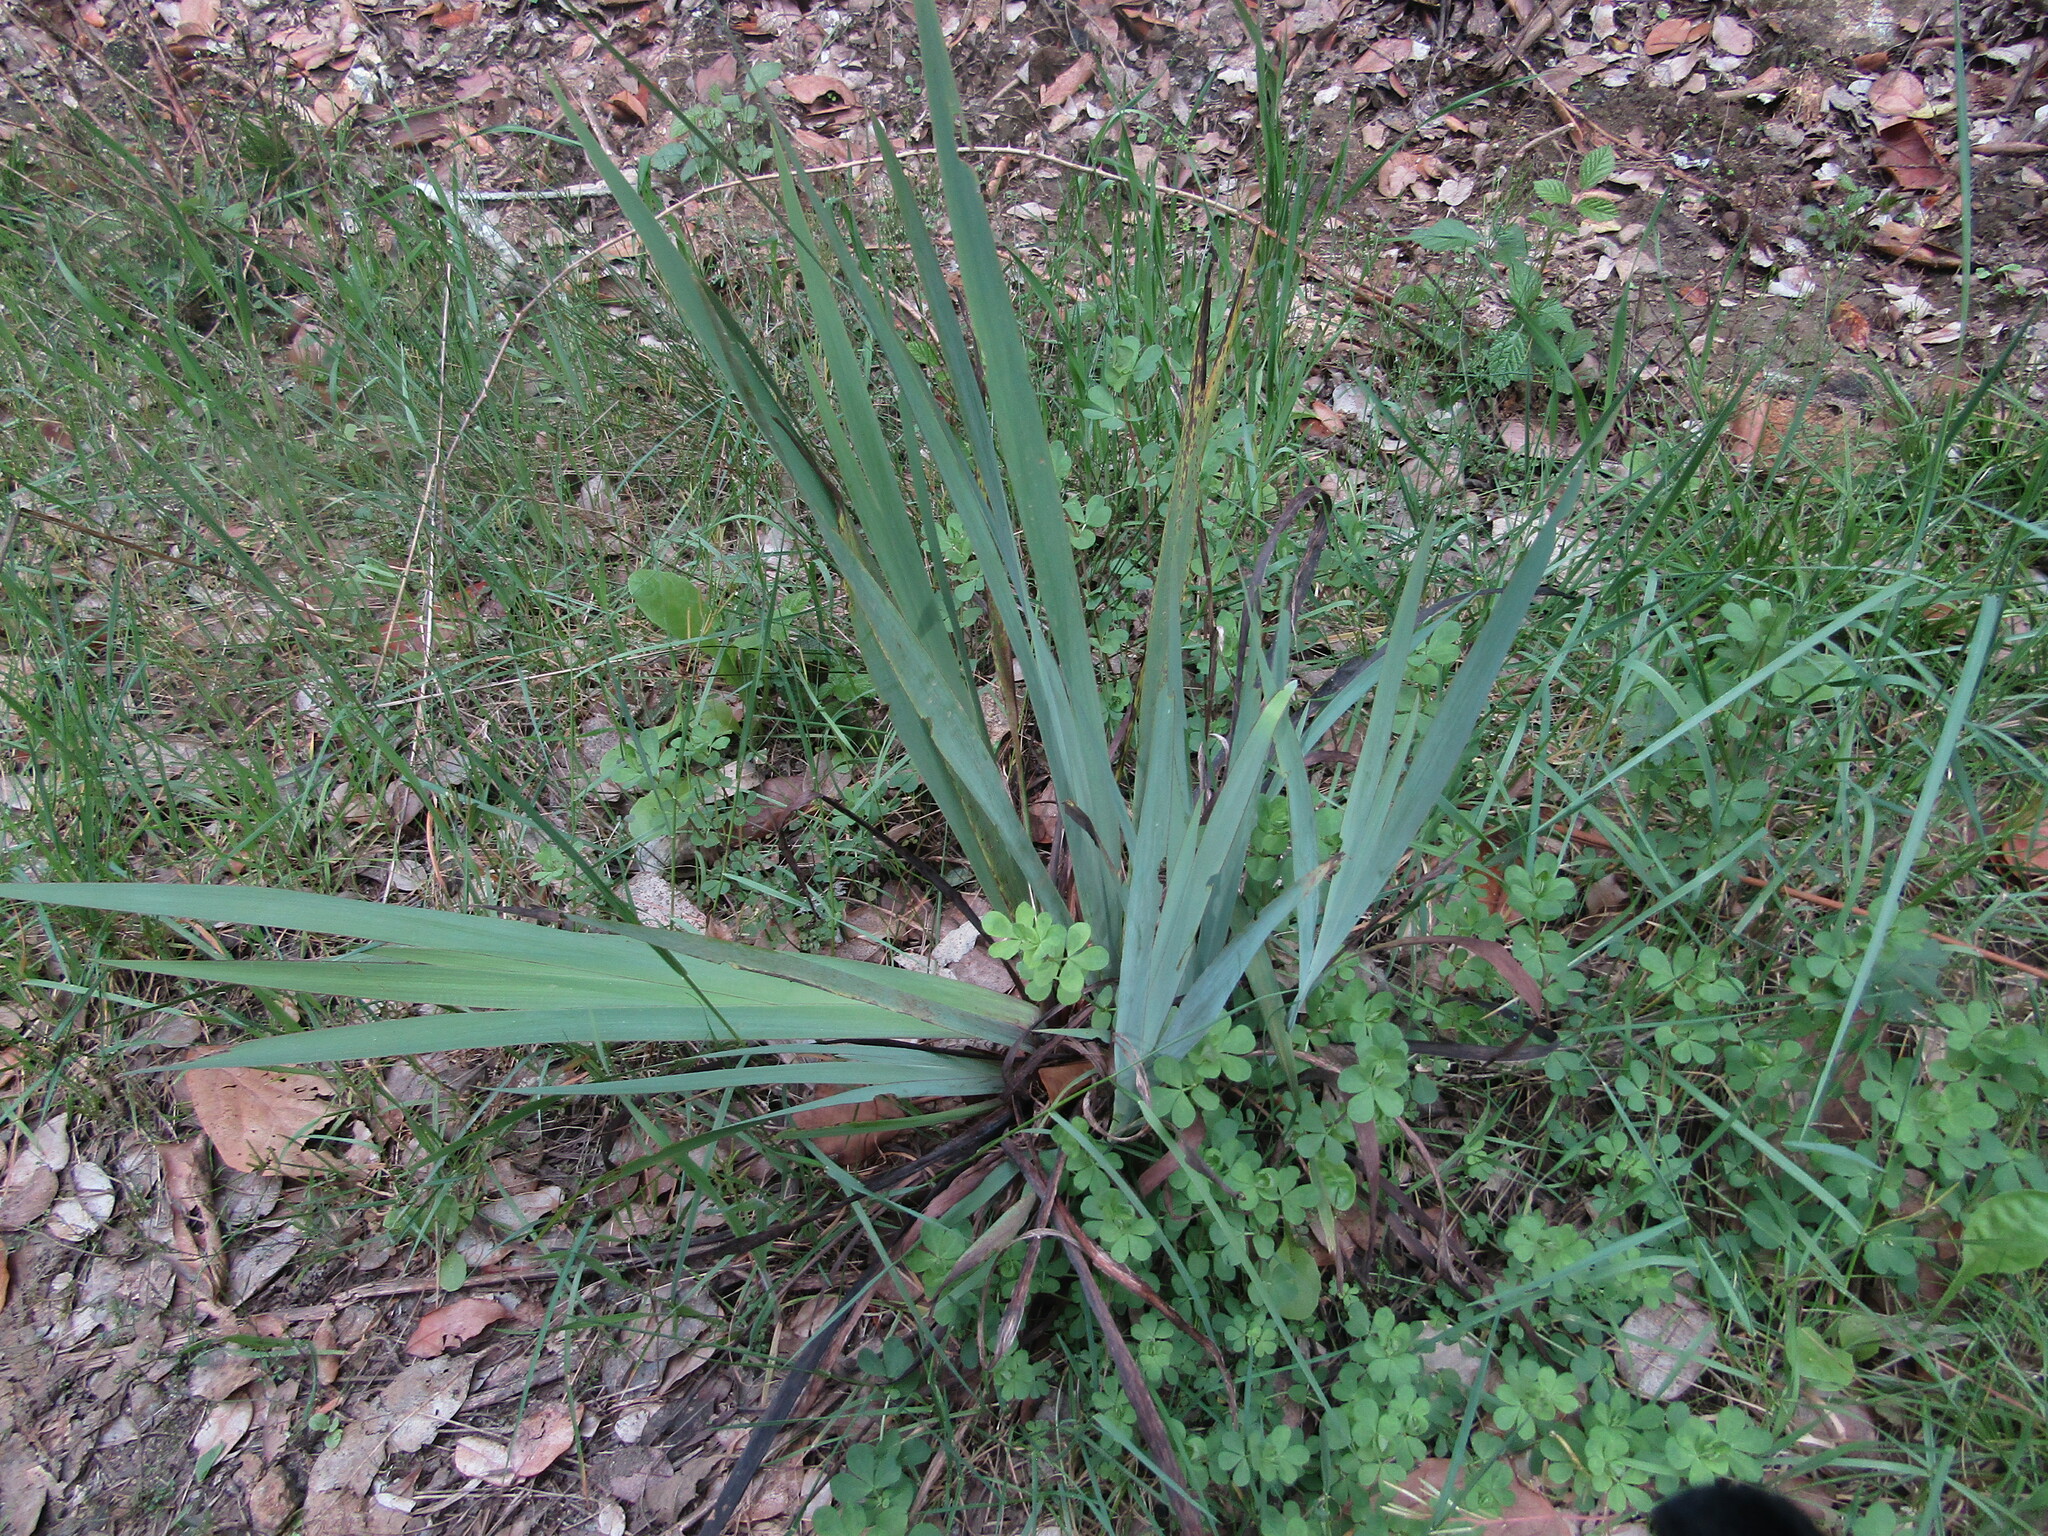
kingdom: Plantae
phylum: Tracheophyta
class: Liliopsida
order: Asparagales
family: Iridaceae
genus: Sisyrinchium
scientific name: Sisyrinchium striatum
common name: Pale yellow-eyed-grass
